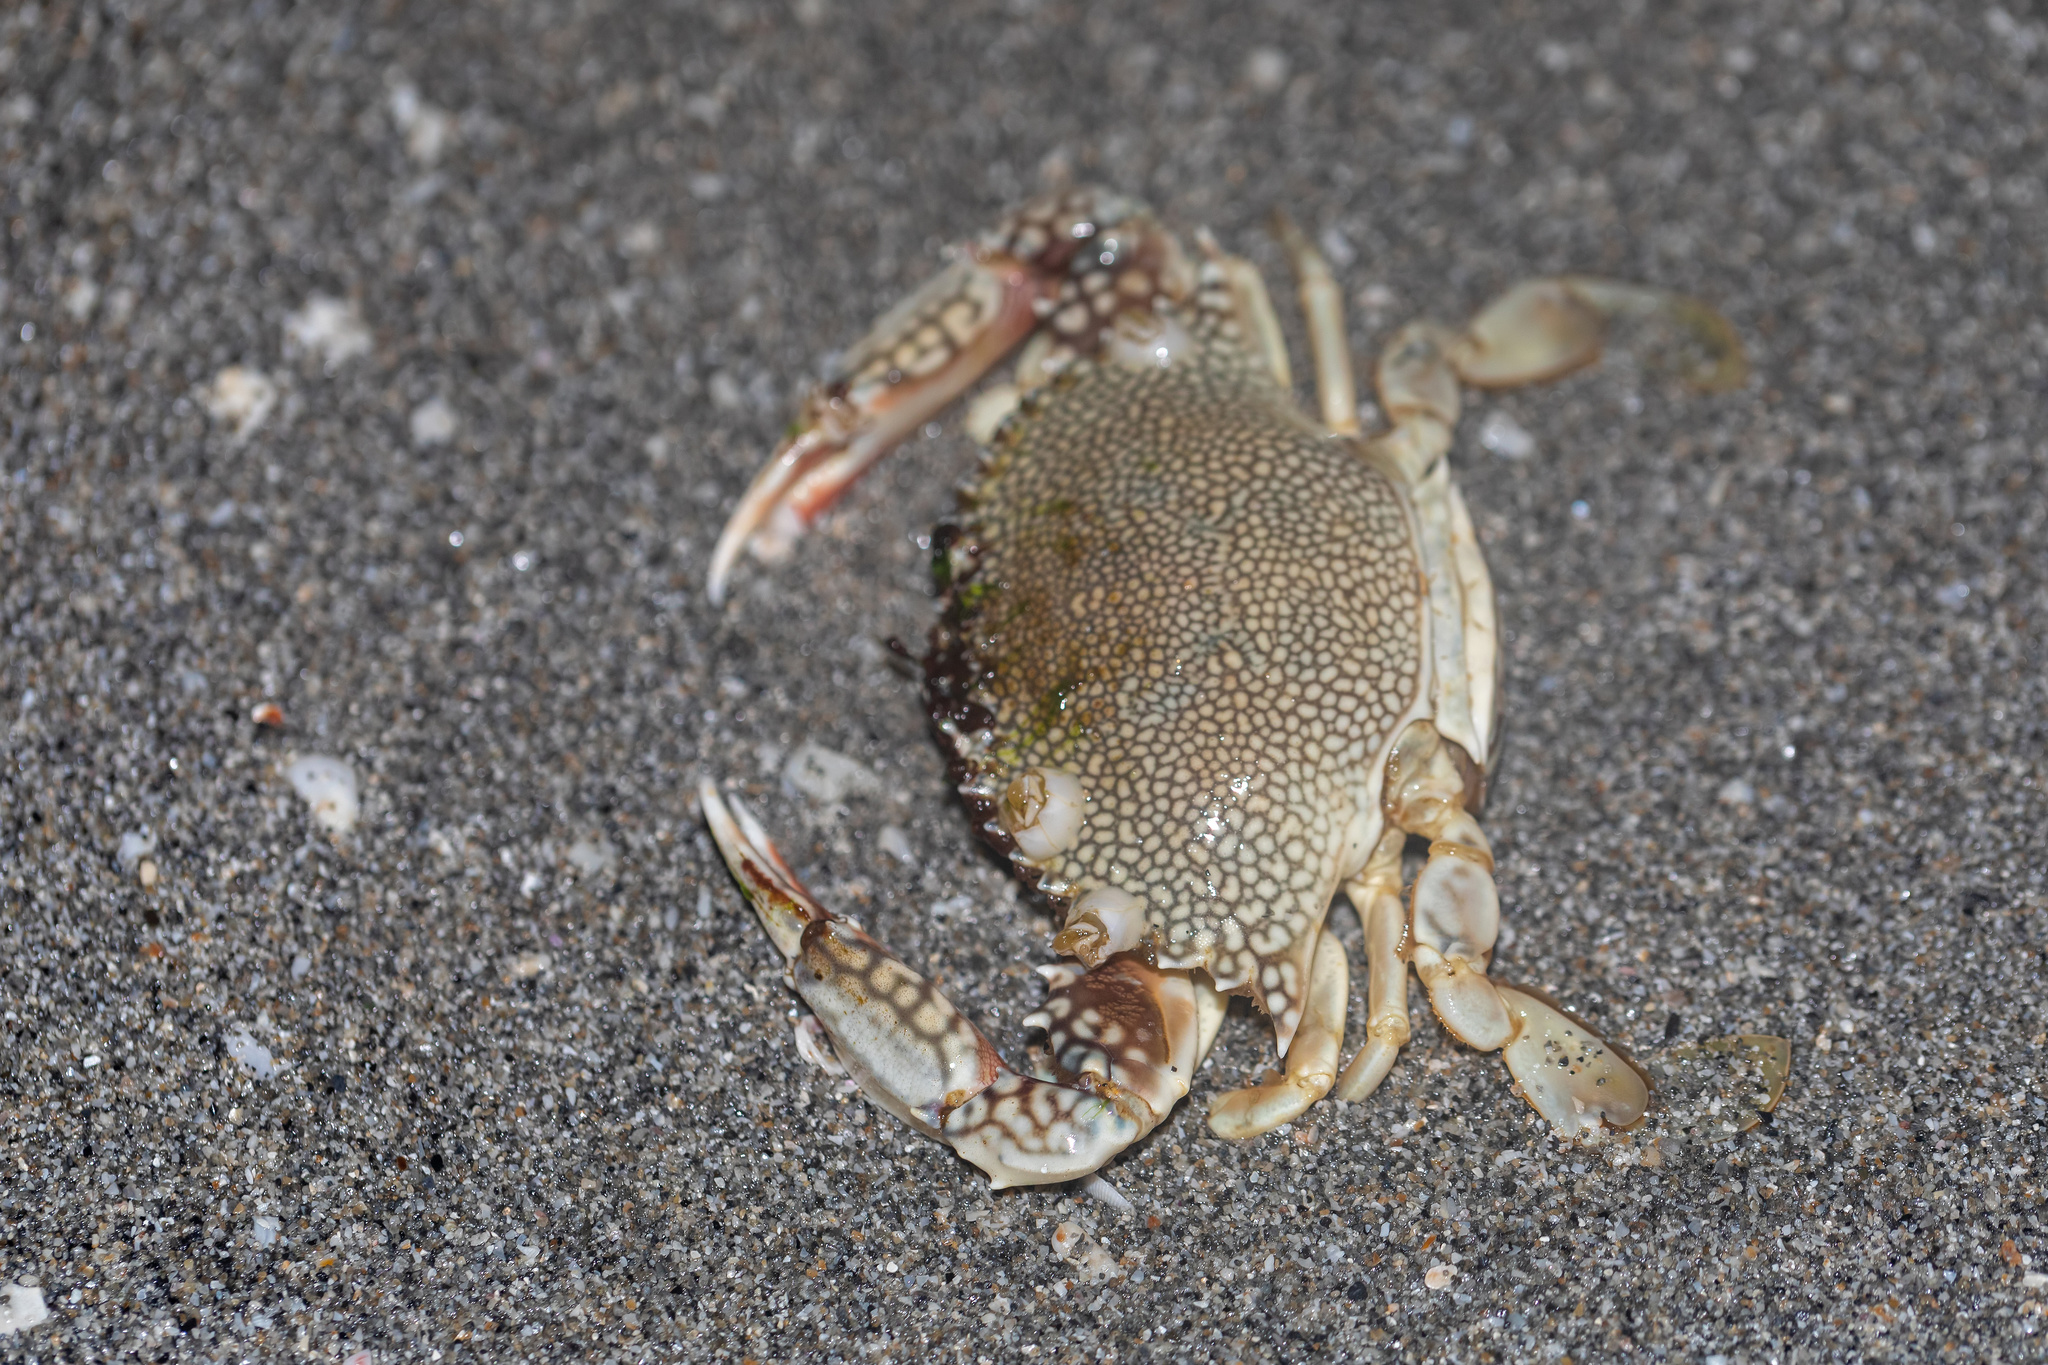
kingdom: Animalia
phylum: Arthropoda
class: Malacostraca
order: Decapoda
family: Portunidae
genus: Arenaeus
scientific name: Arenaeus cribrarius
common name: Speckled crab
